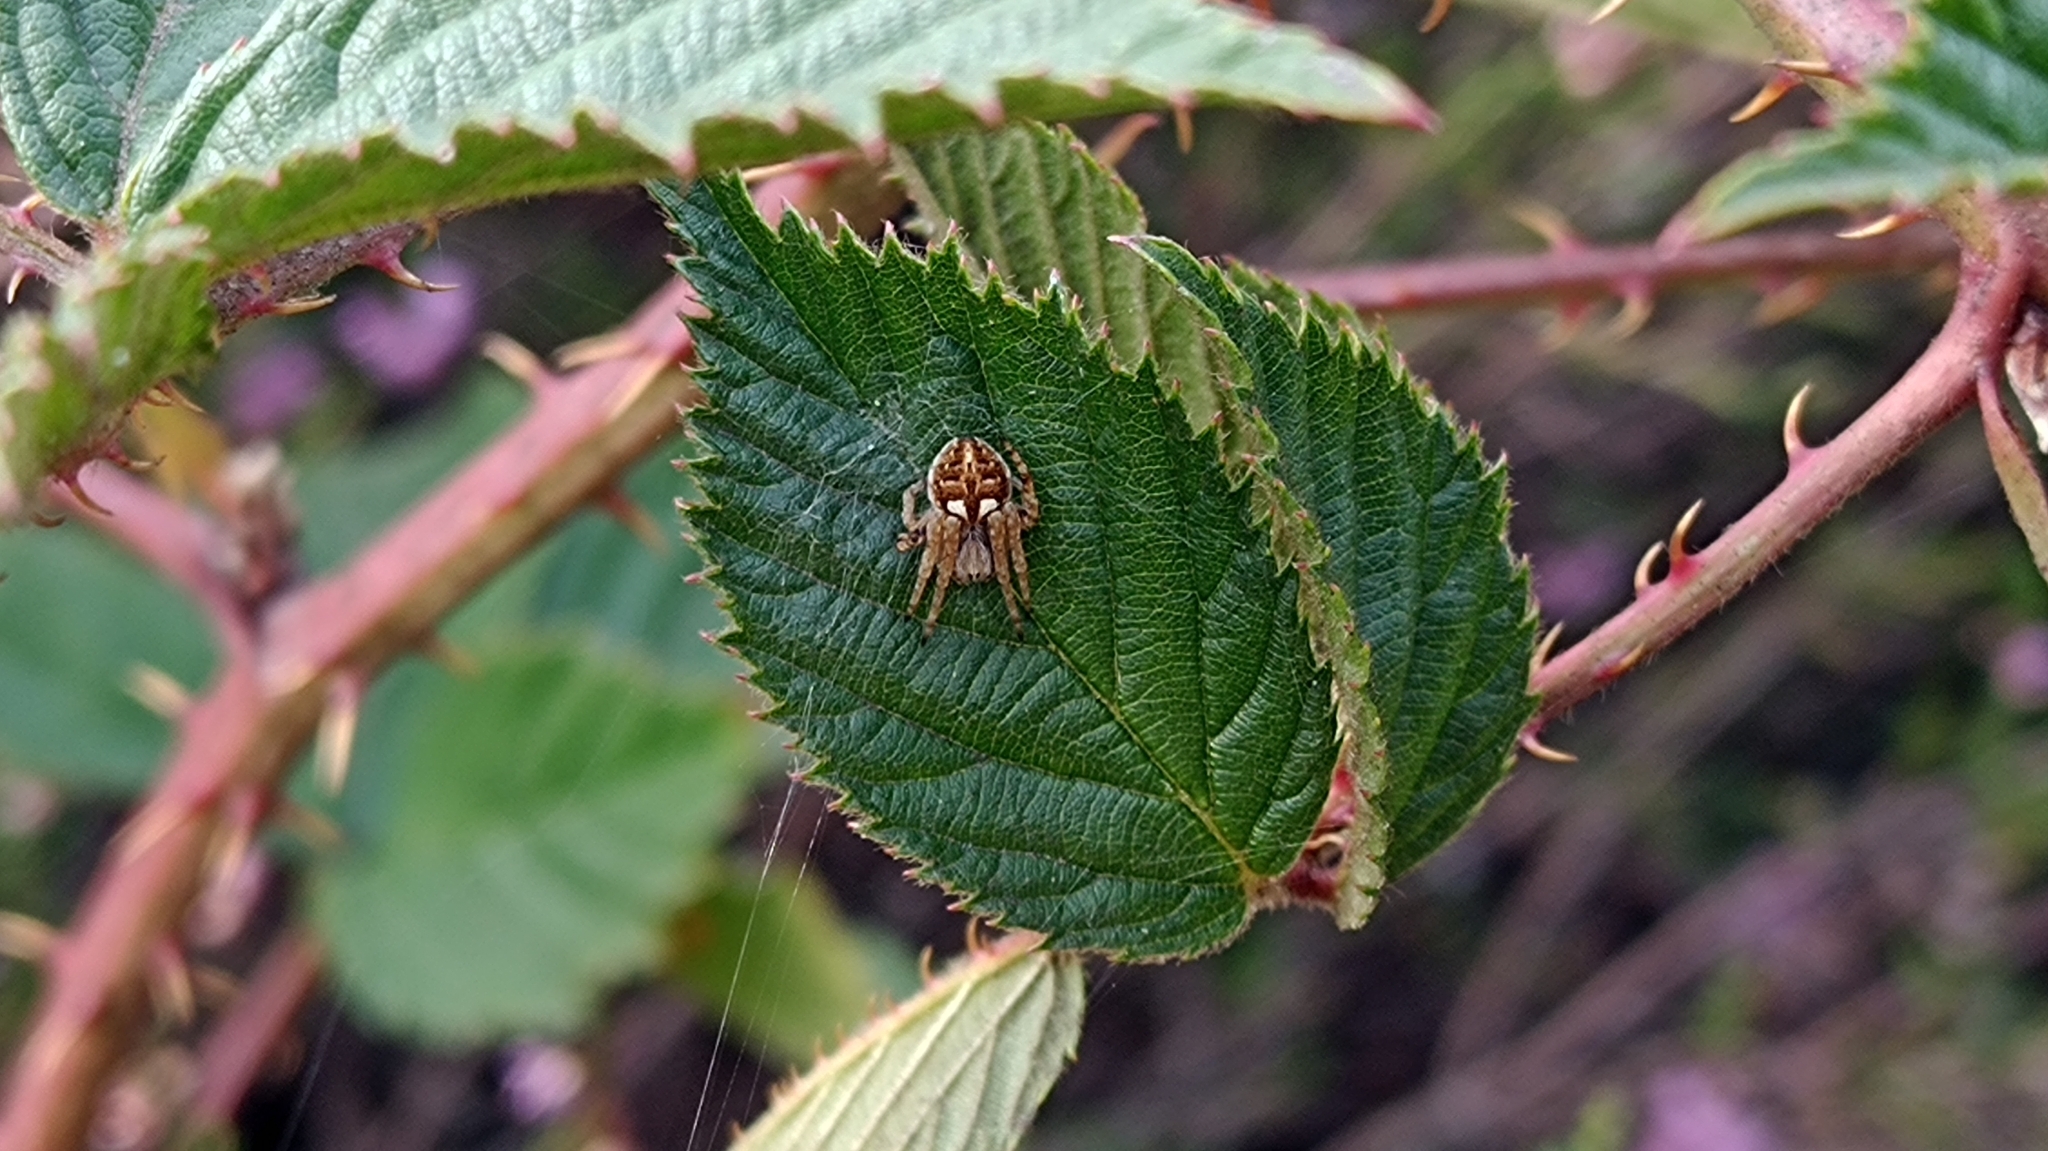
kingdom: Animalia
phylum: Arthropoda
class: Arachnida
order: Araneae
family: Araneidae
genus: Agalenatea
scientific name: Agalenatea redii
